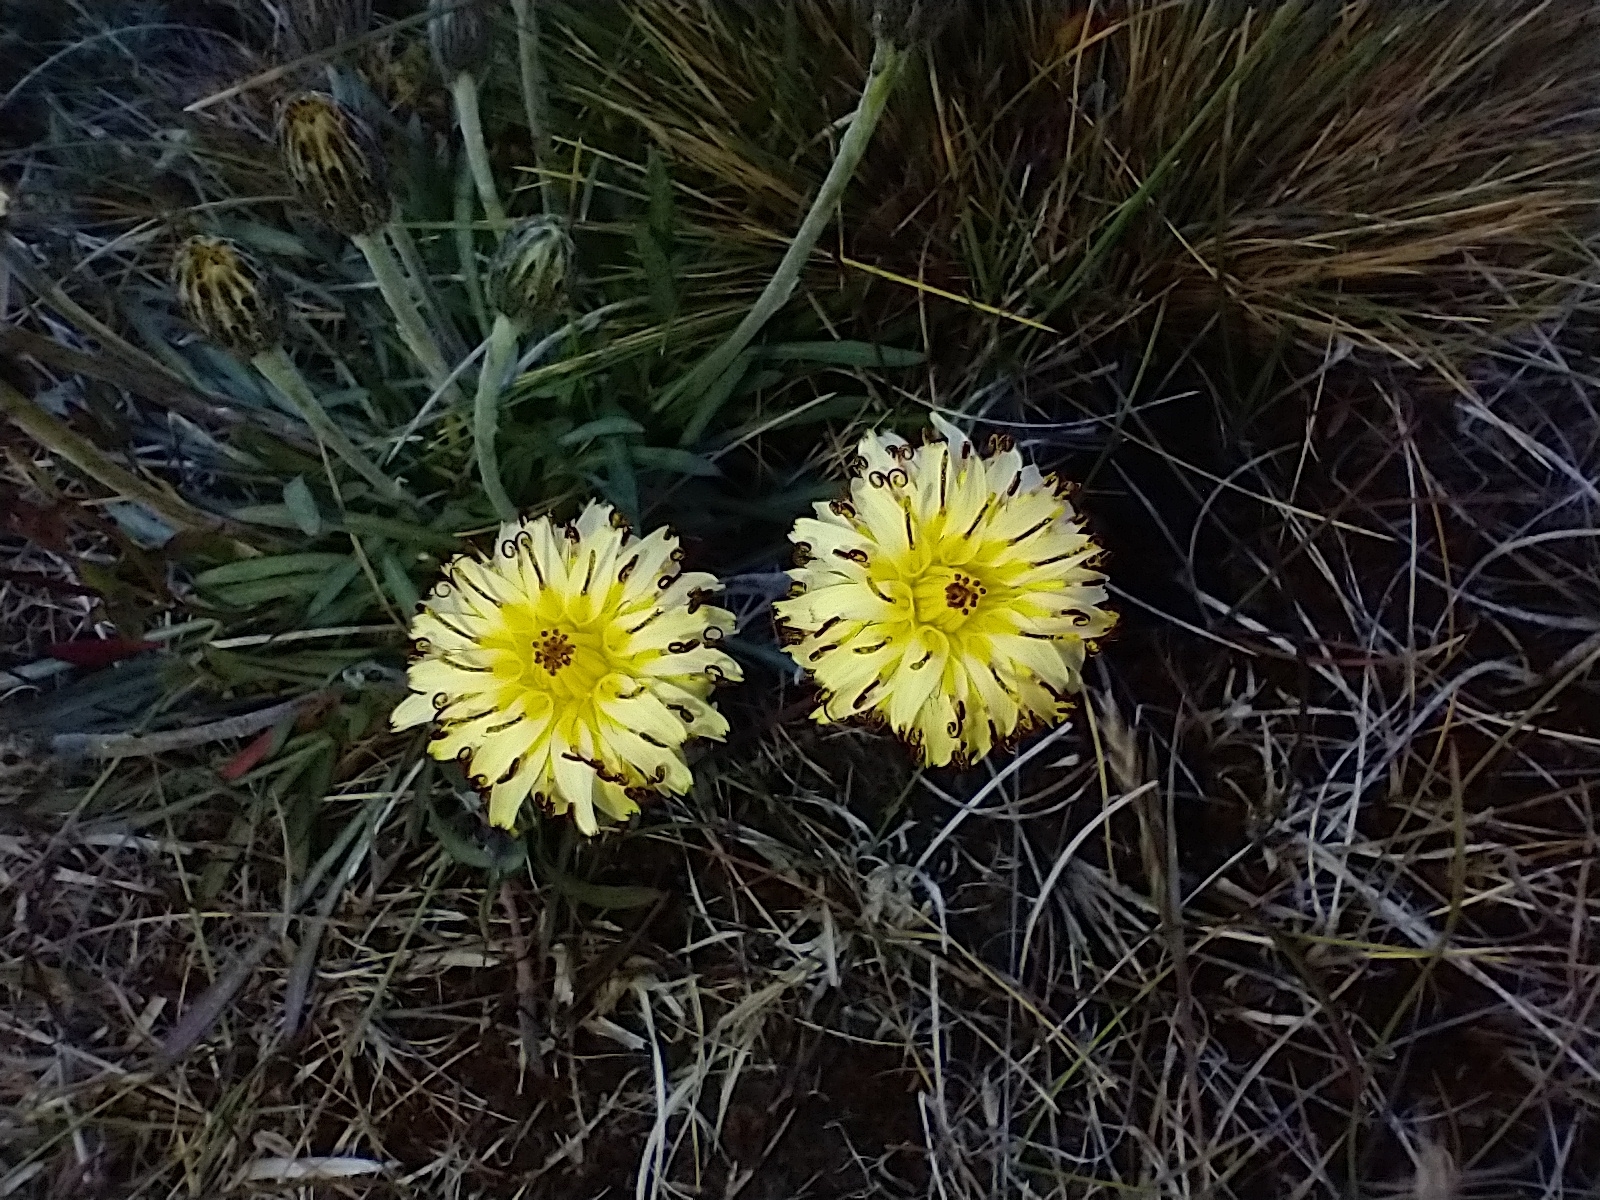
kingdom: Plantae
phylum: Tracheophyta
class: Magnoliopsida
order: Asterales
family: Asteraceae
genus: Hypochaeris
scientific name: Hypochaeris incana
